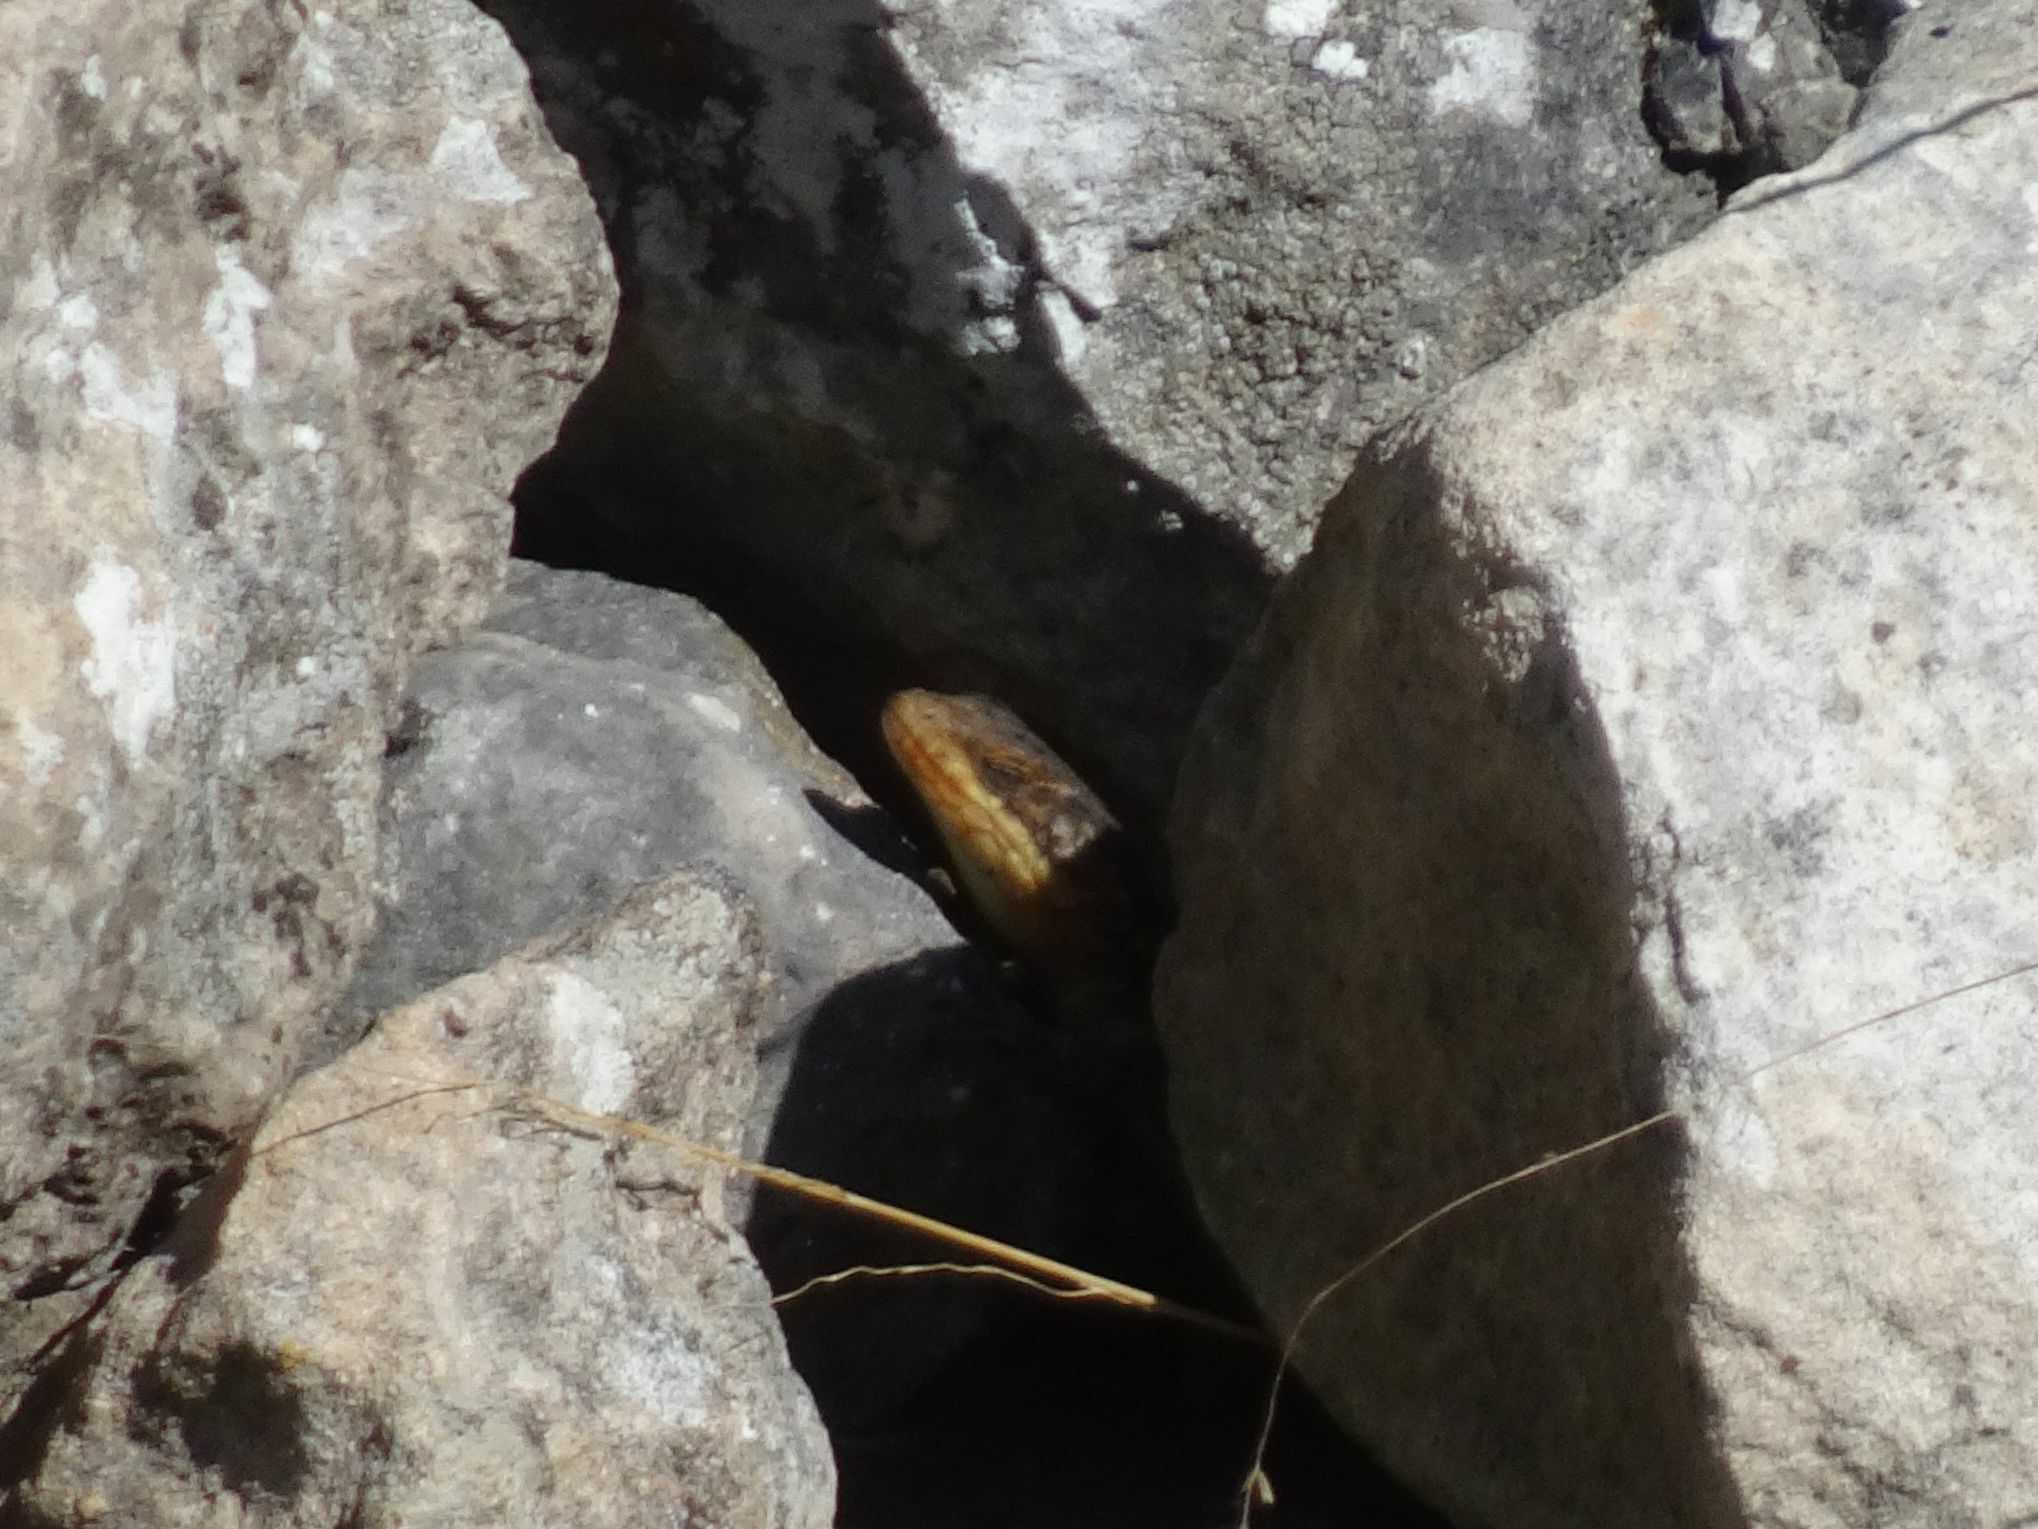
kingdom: Animalia
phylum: Chordata
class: Squamata
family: Cordylidae
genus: Cordylus
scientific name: Cordylus cordylus
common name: Cape girdled lizard
